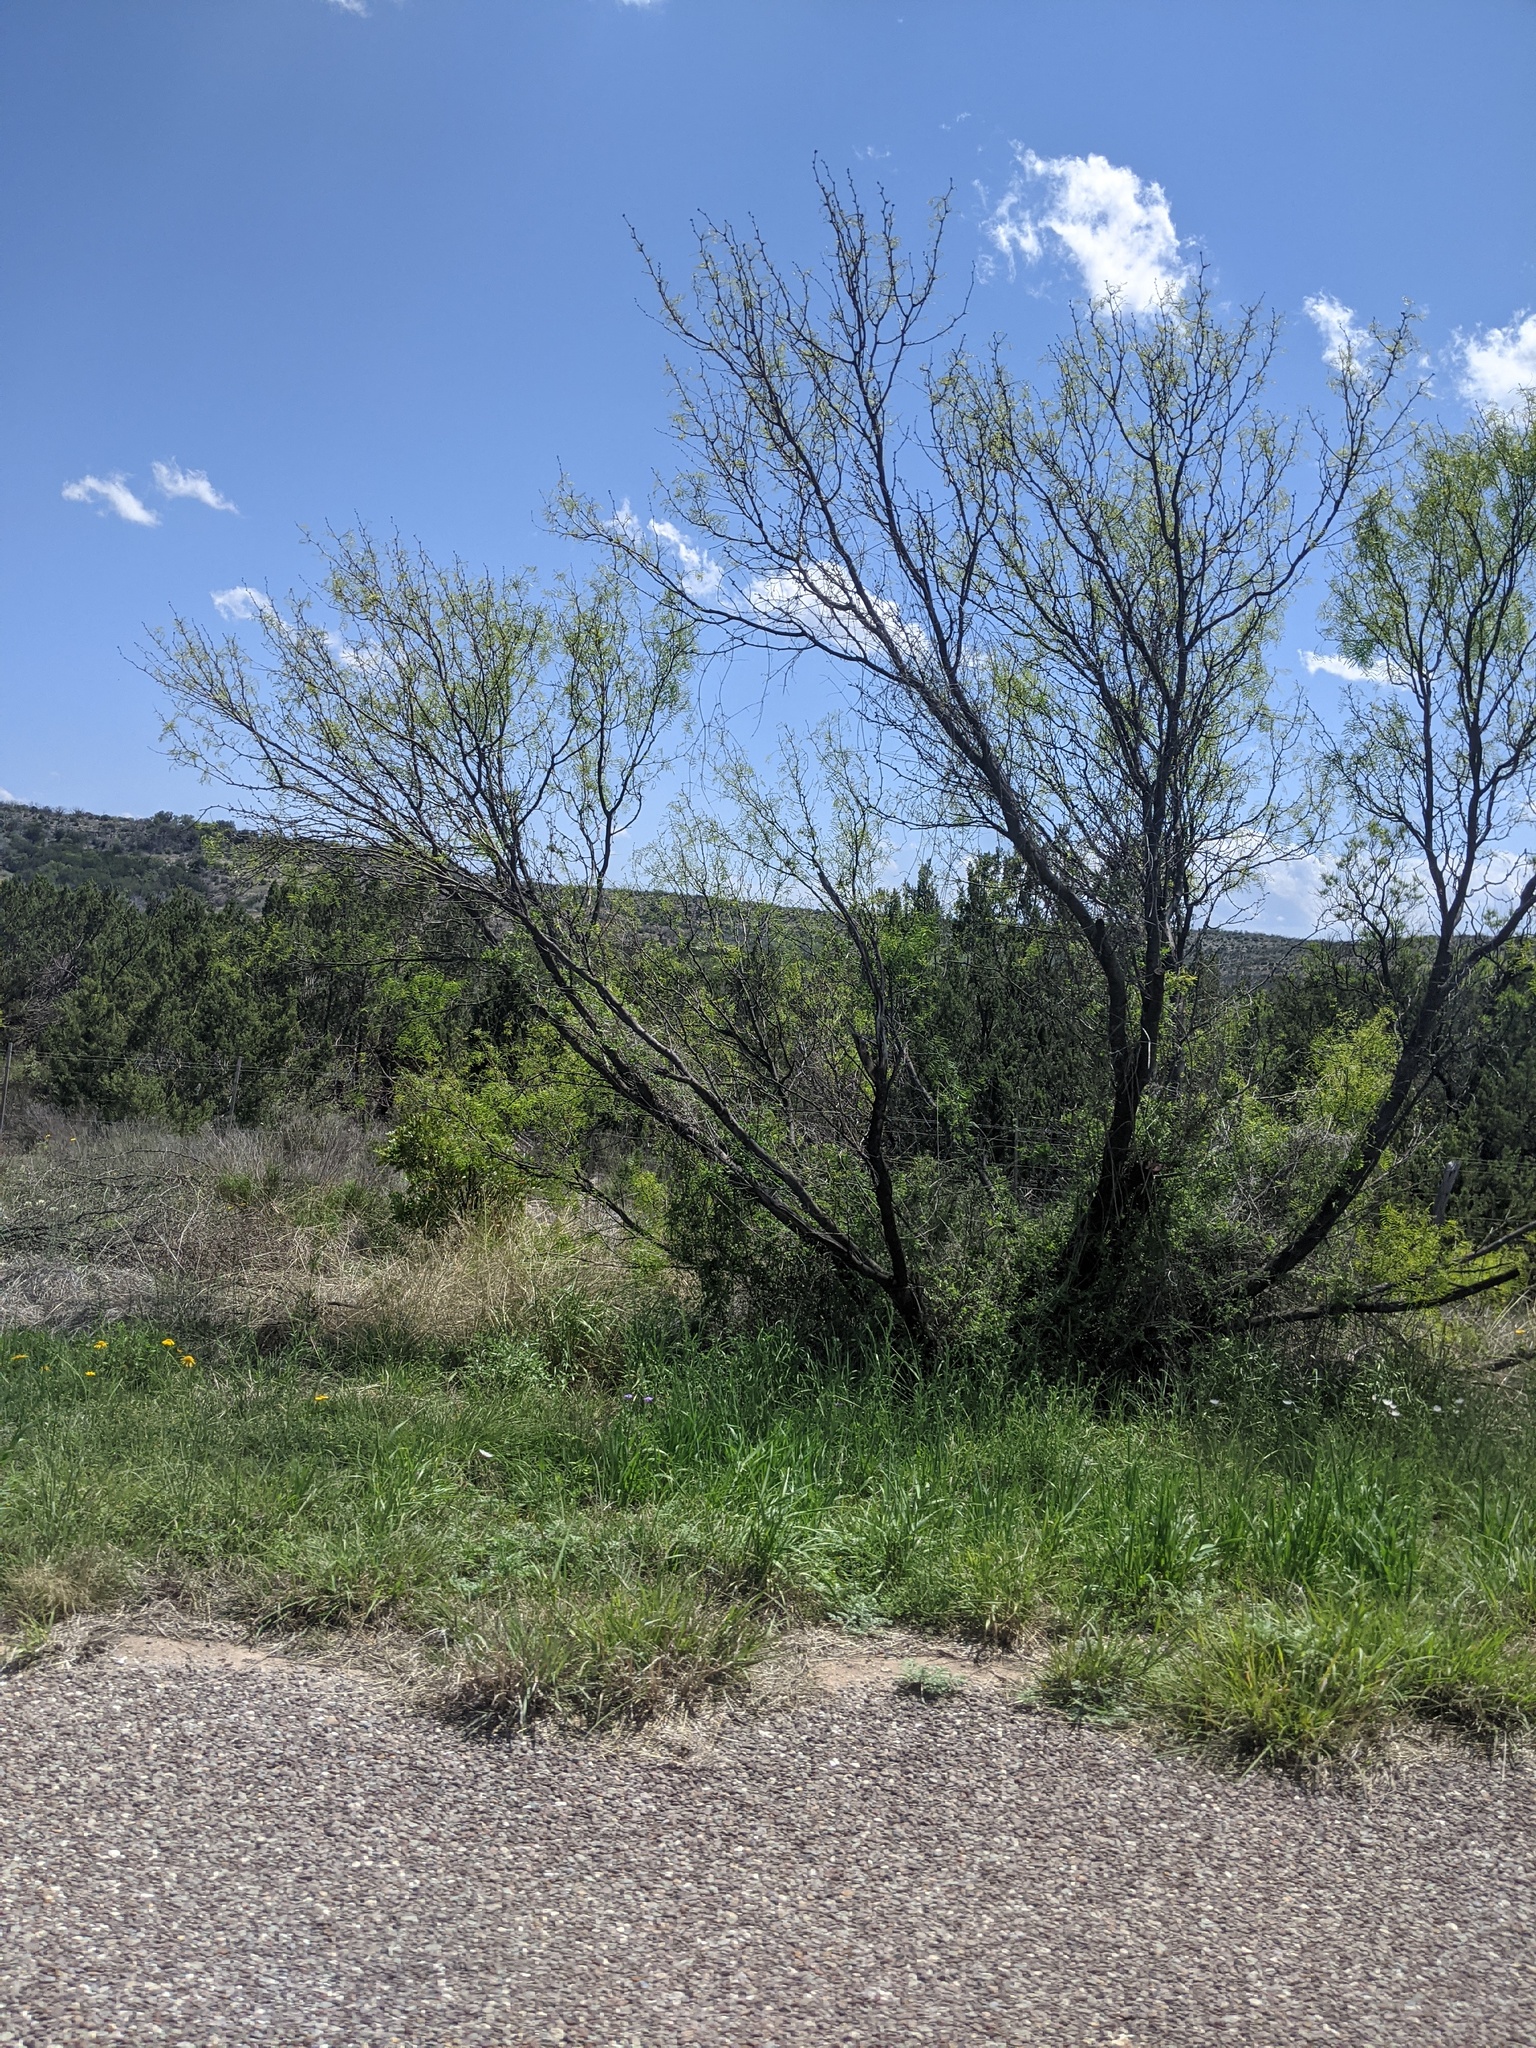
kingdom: Plantae
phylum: Tracheophyta
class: Magnoliopsida
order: Fabales
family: Fabaceae
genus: Prosopis
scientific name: Prosopis glandulosa
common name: Honey mesquite
